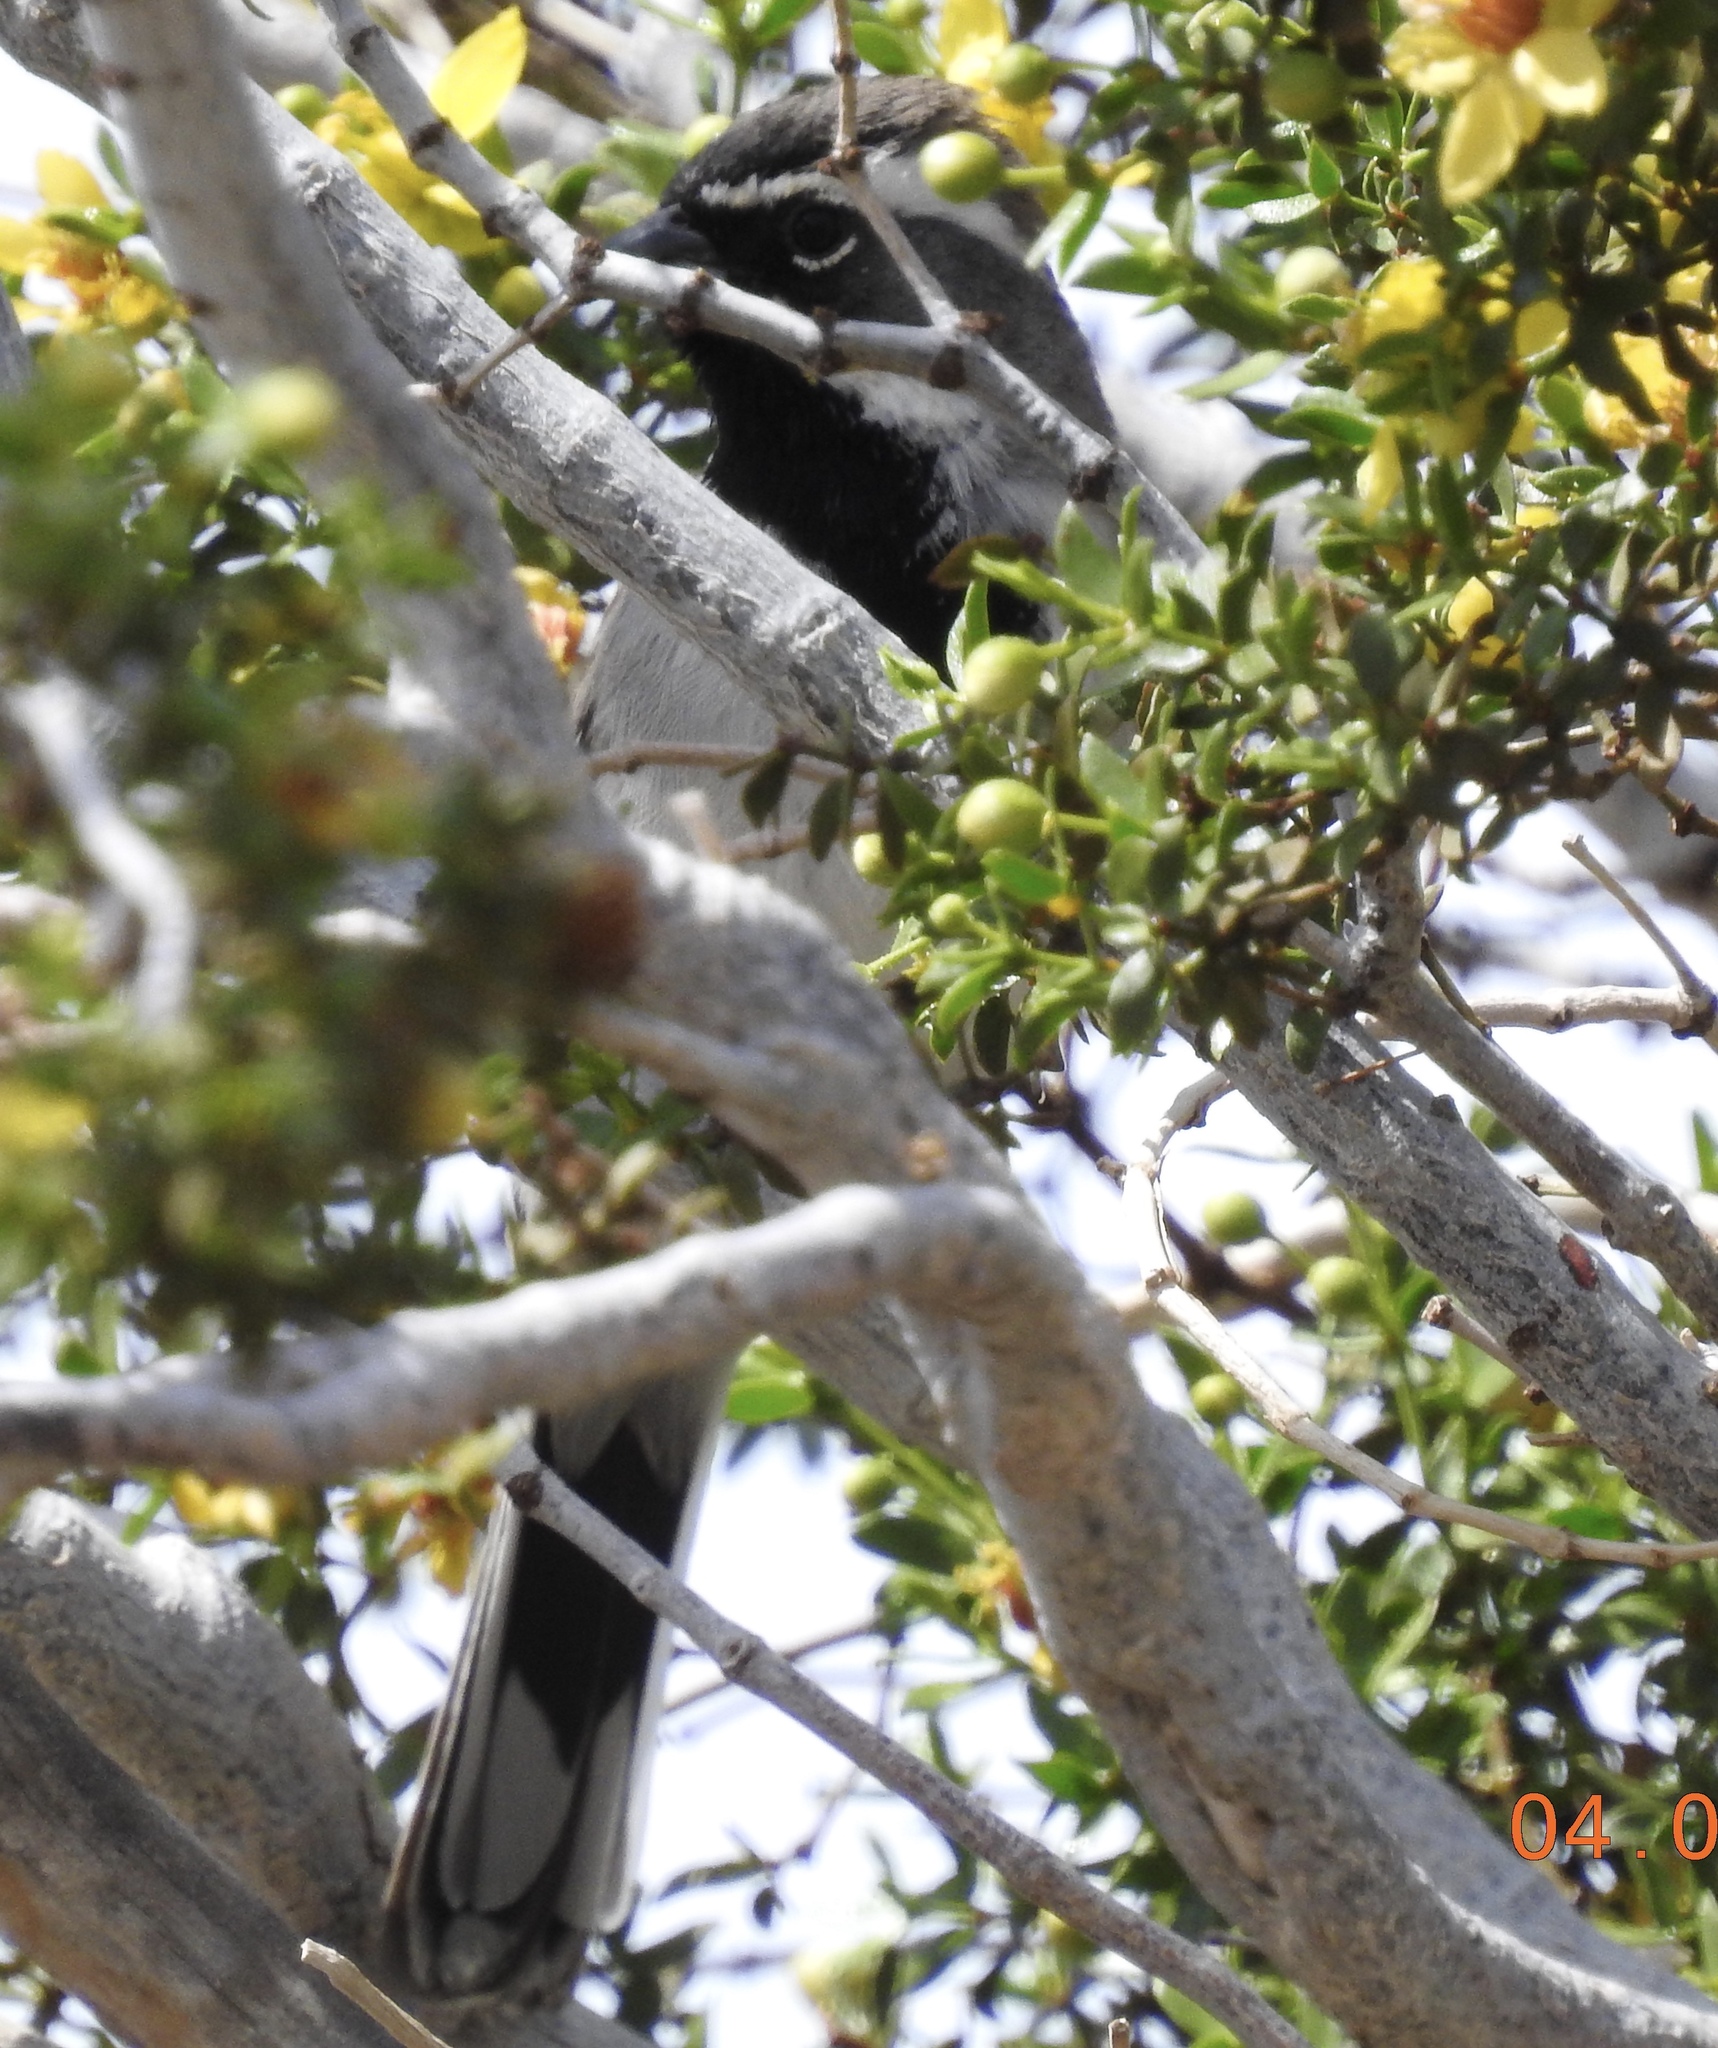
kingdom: Animalia
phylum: Chordata
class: Aves
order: Passeriformes
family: Passerellidae
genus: Amphispiza
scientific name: Amphispiza bilineata
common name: Black-throated sparrow
